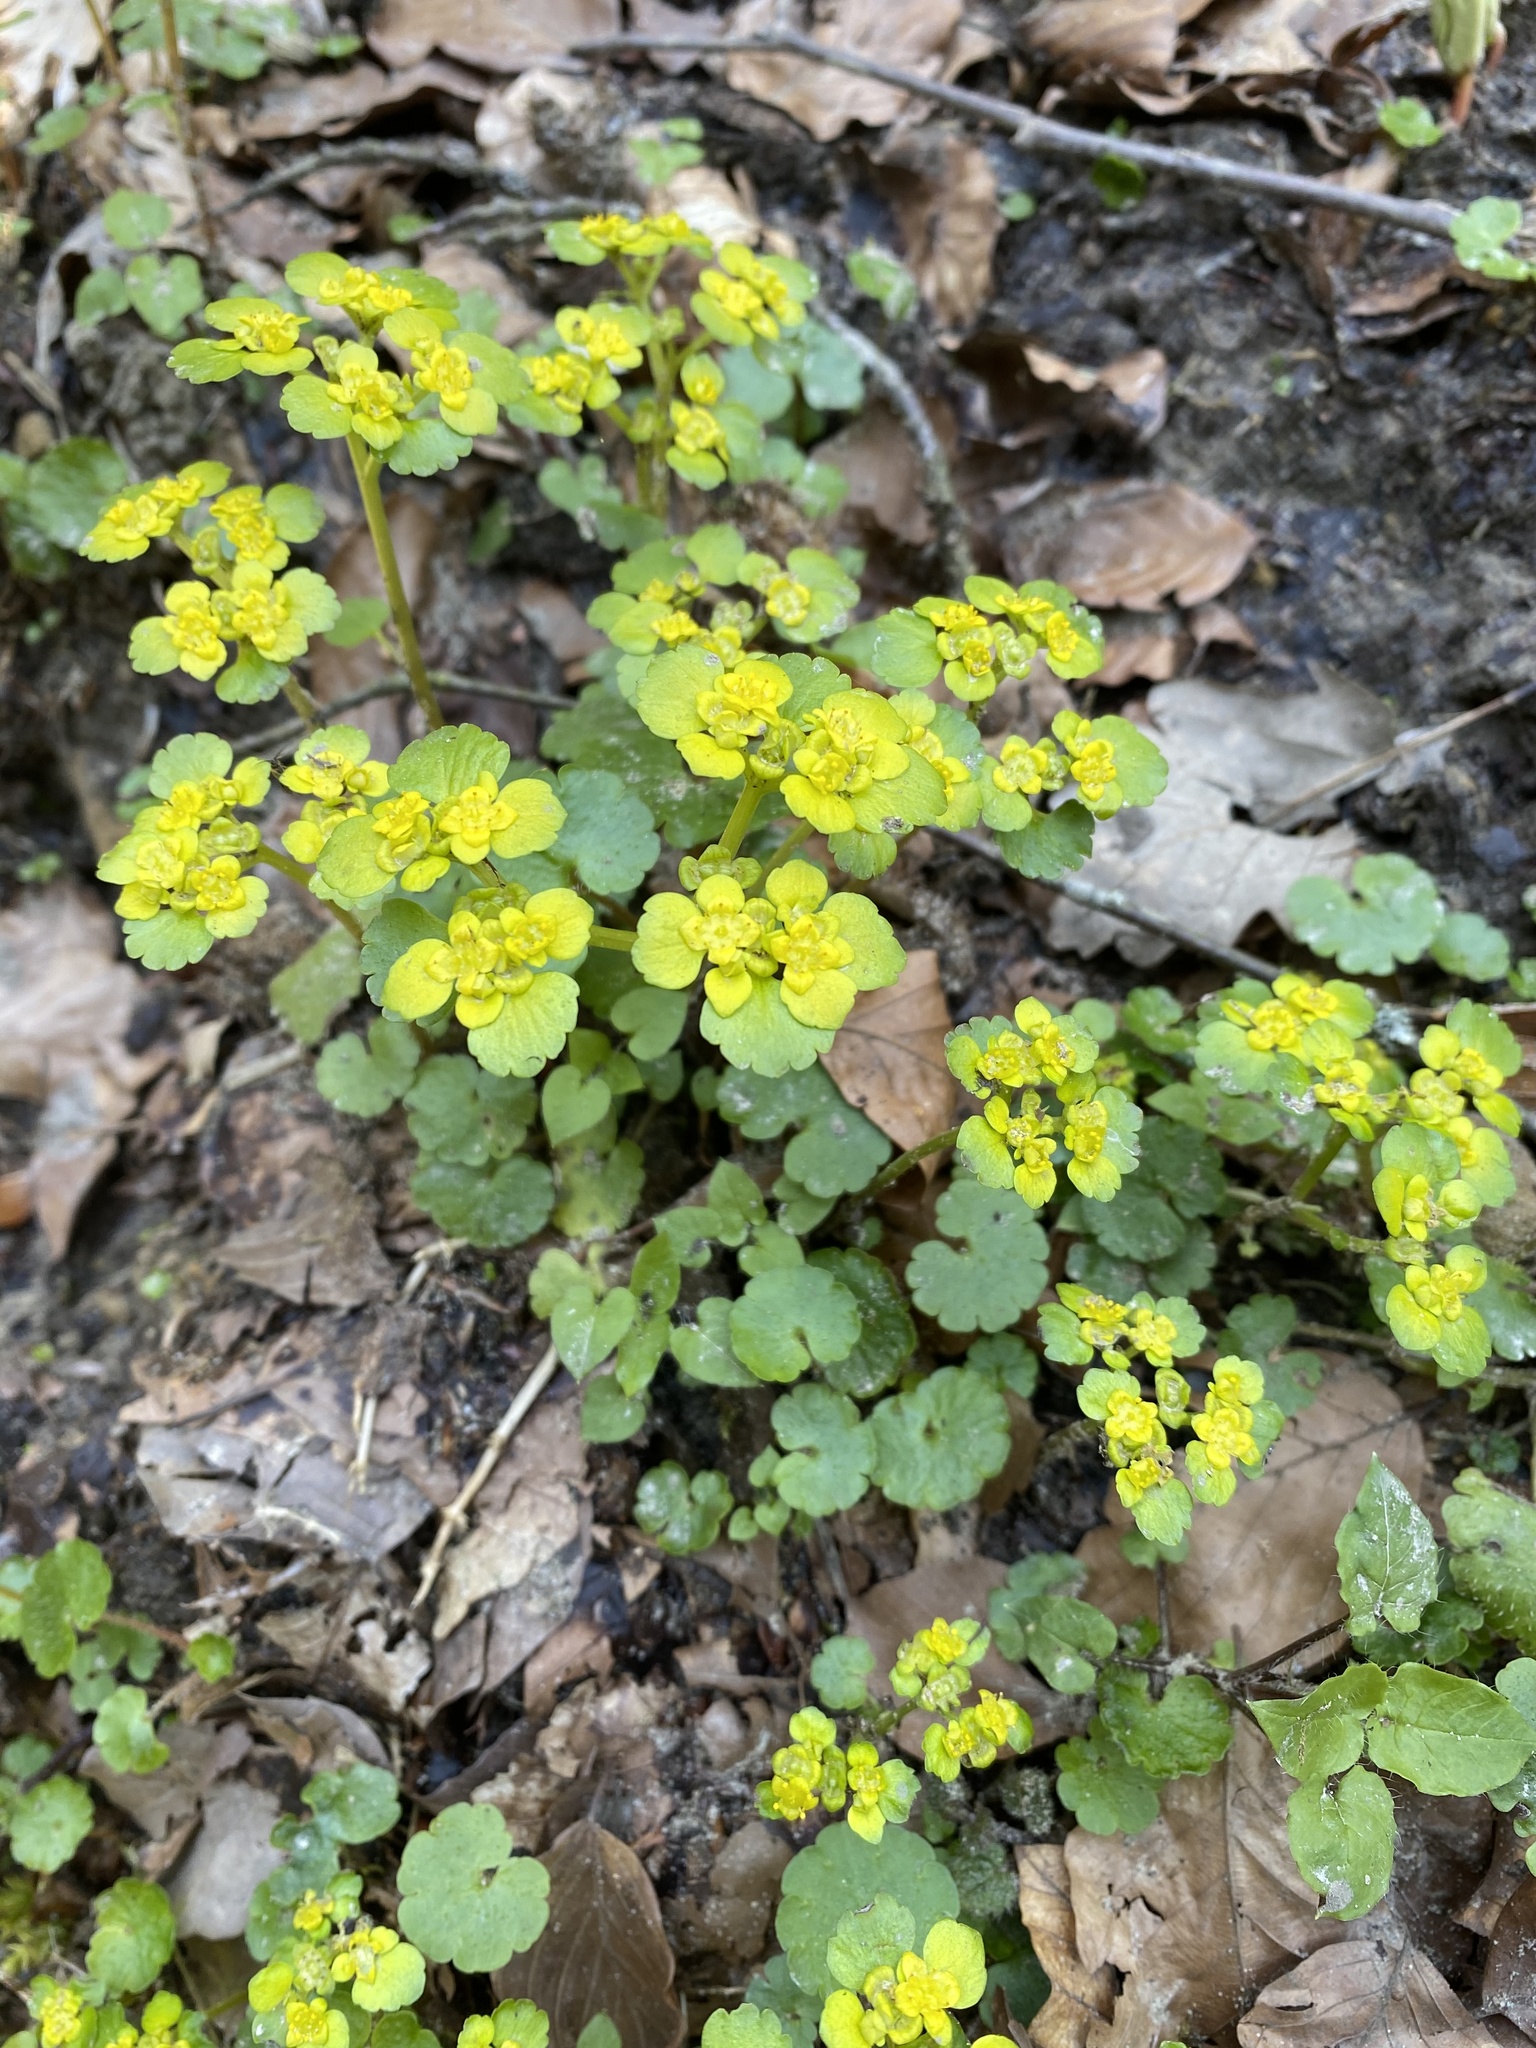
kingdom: Plantae
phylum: Tracheophyta
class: Magnoliopsida
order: Saxifragales
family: Saxifragaceae
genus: Chrysosplenium
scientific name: Chrysosplenium alternifolium
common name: Alternate-leaved golden-saxifrage
